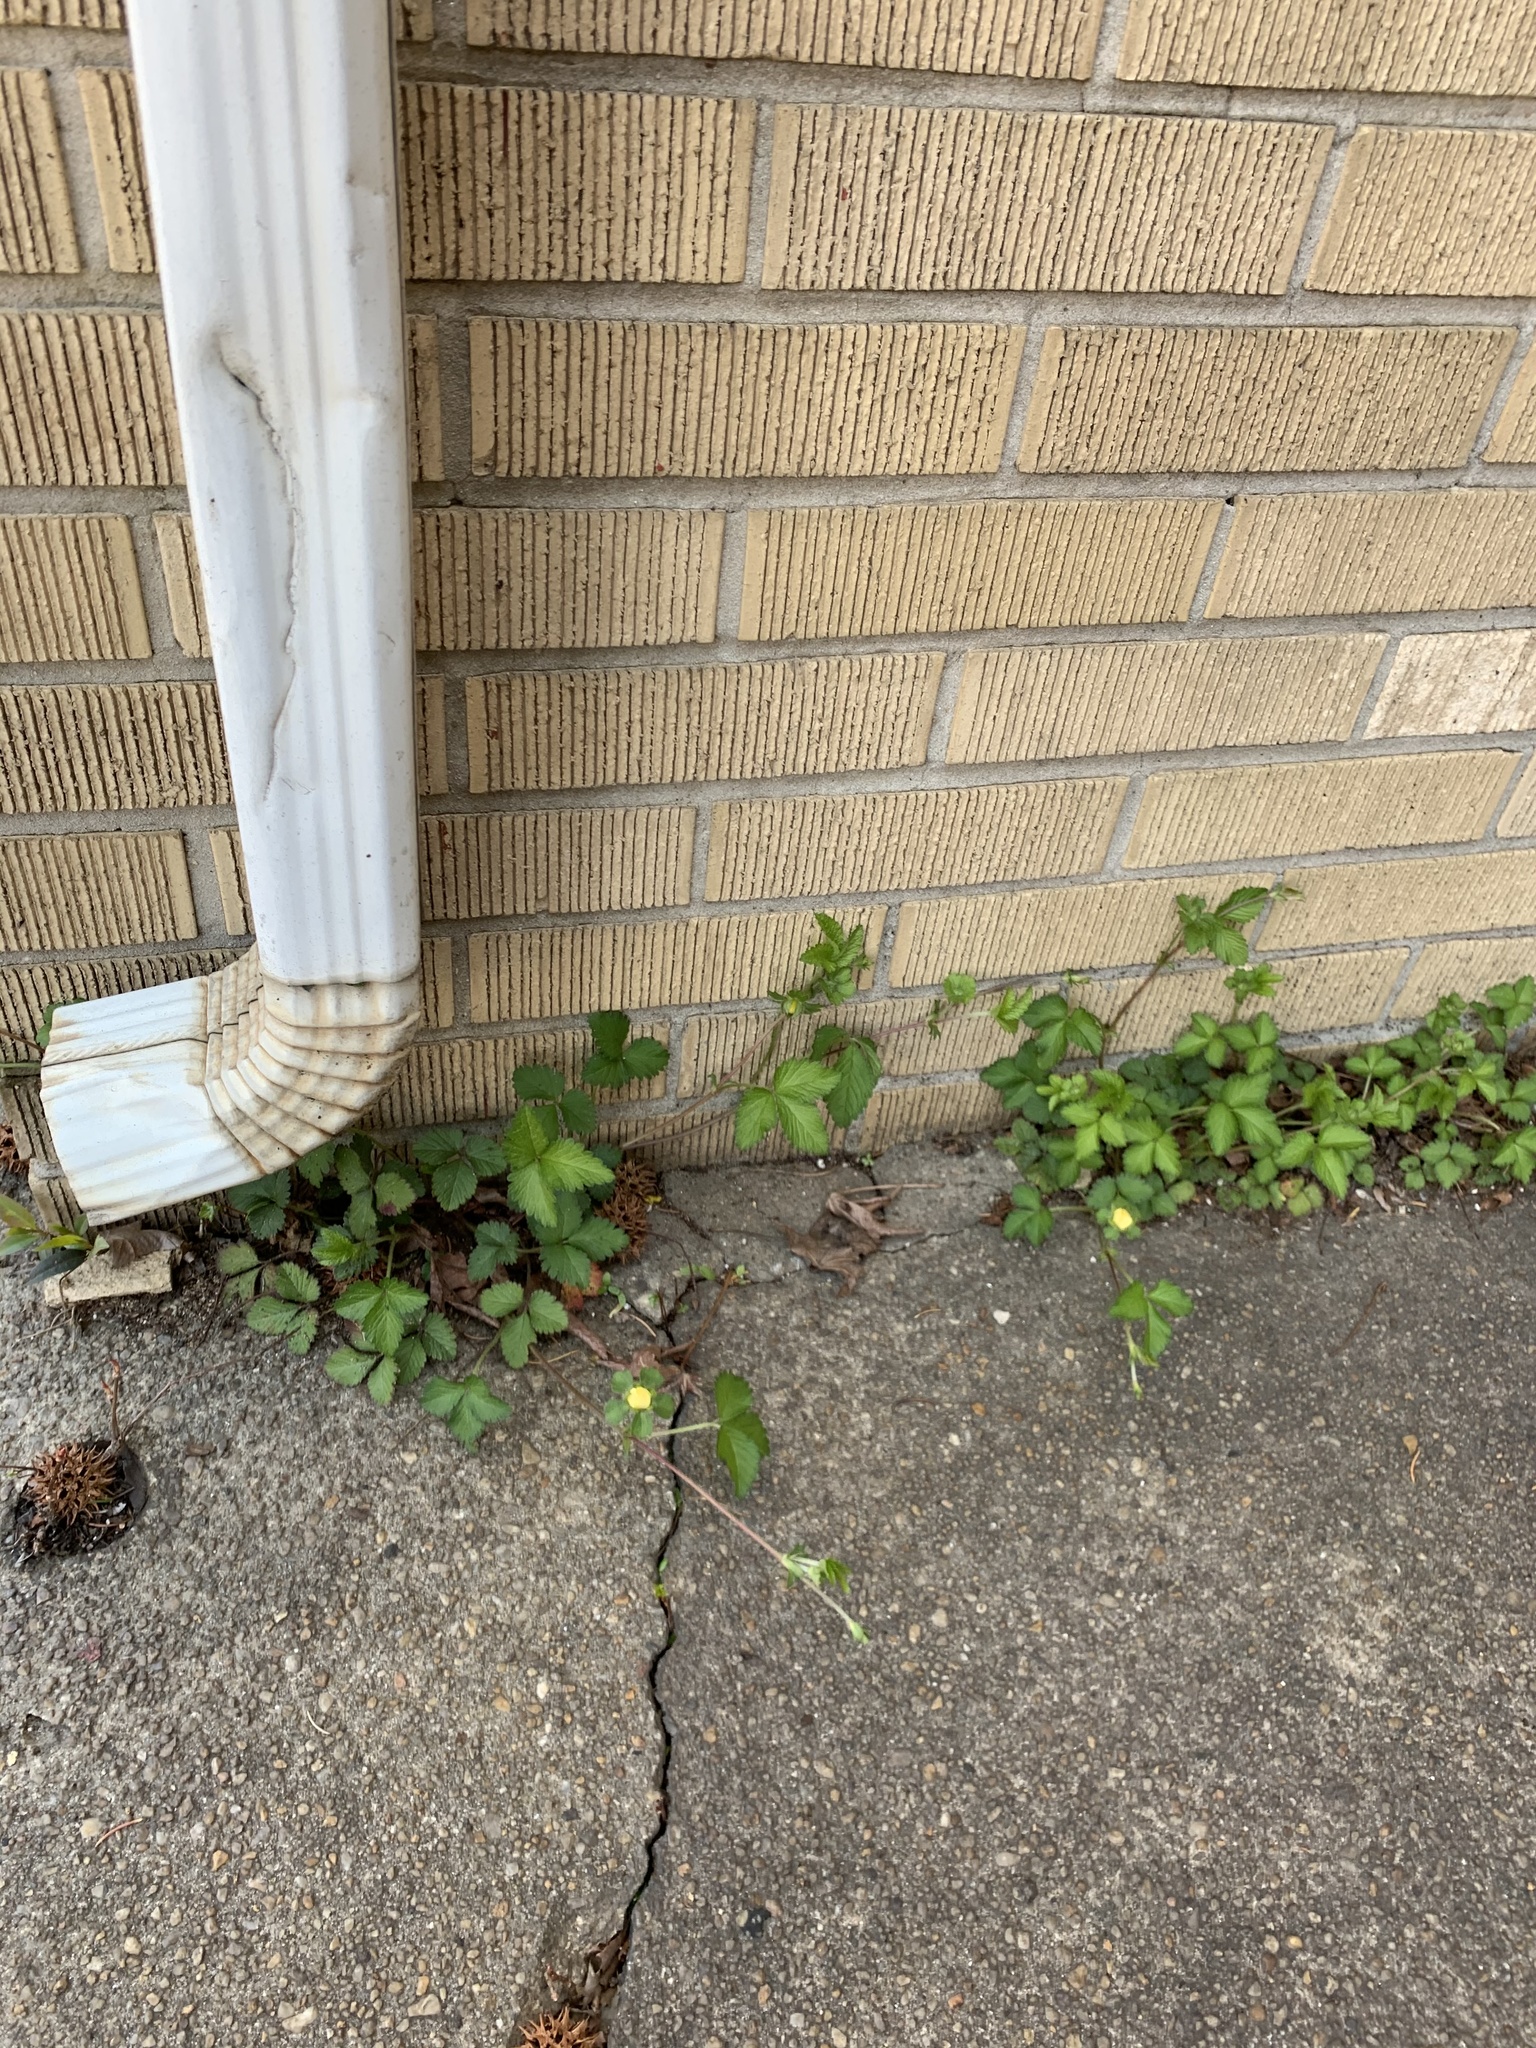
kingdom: Plantae
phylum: Tracheophyta
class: Magnoliopsida
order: Rosales
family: Rosaceae
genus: Potentilla
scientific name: Potentilla indica
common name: Yellow-flowered strawberry
